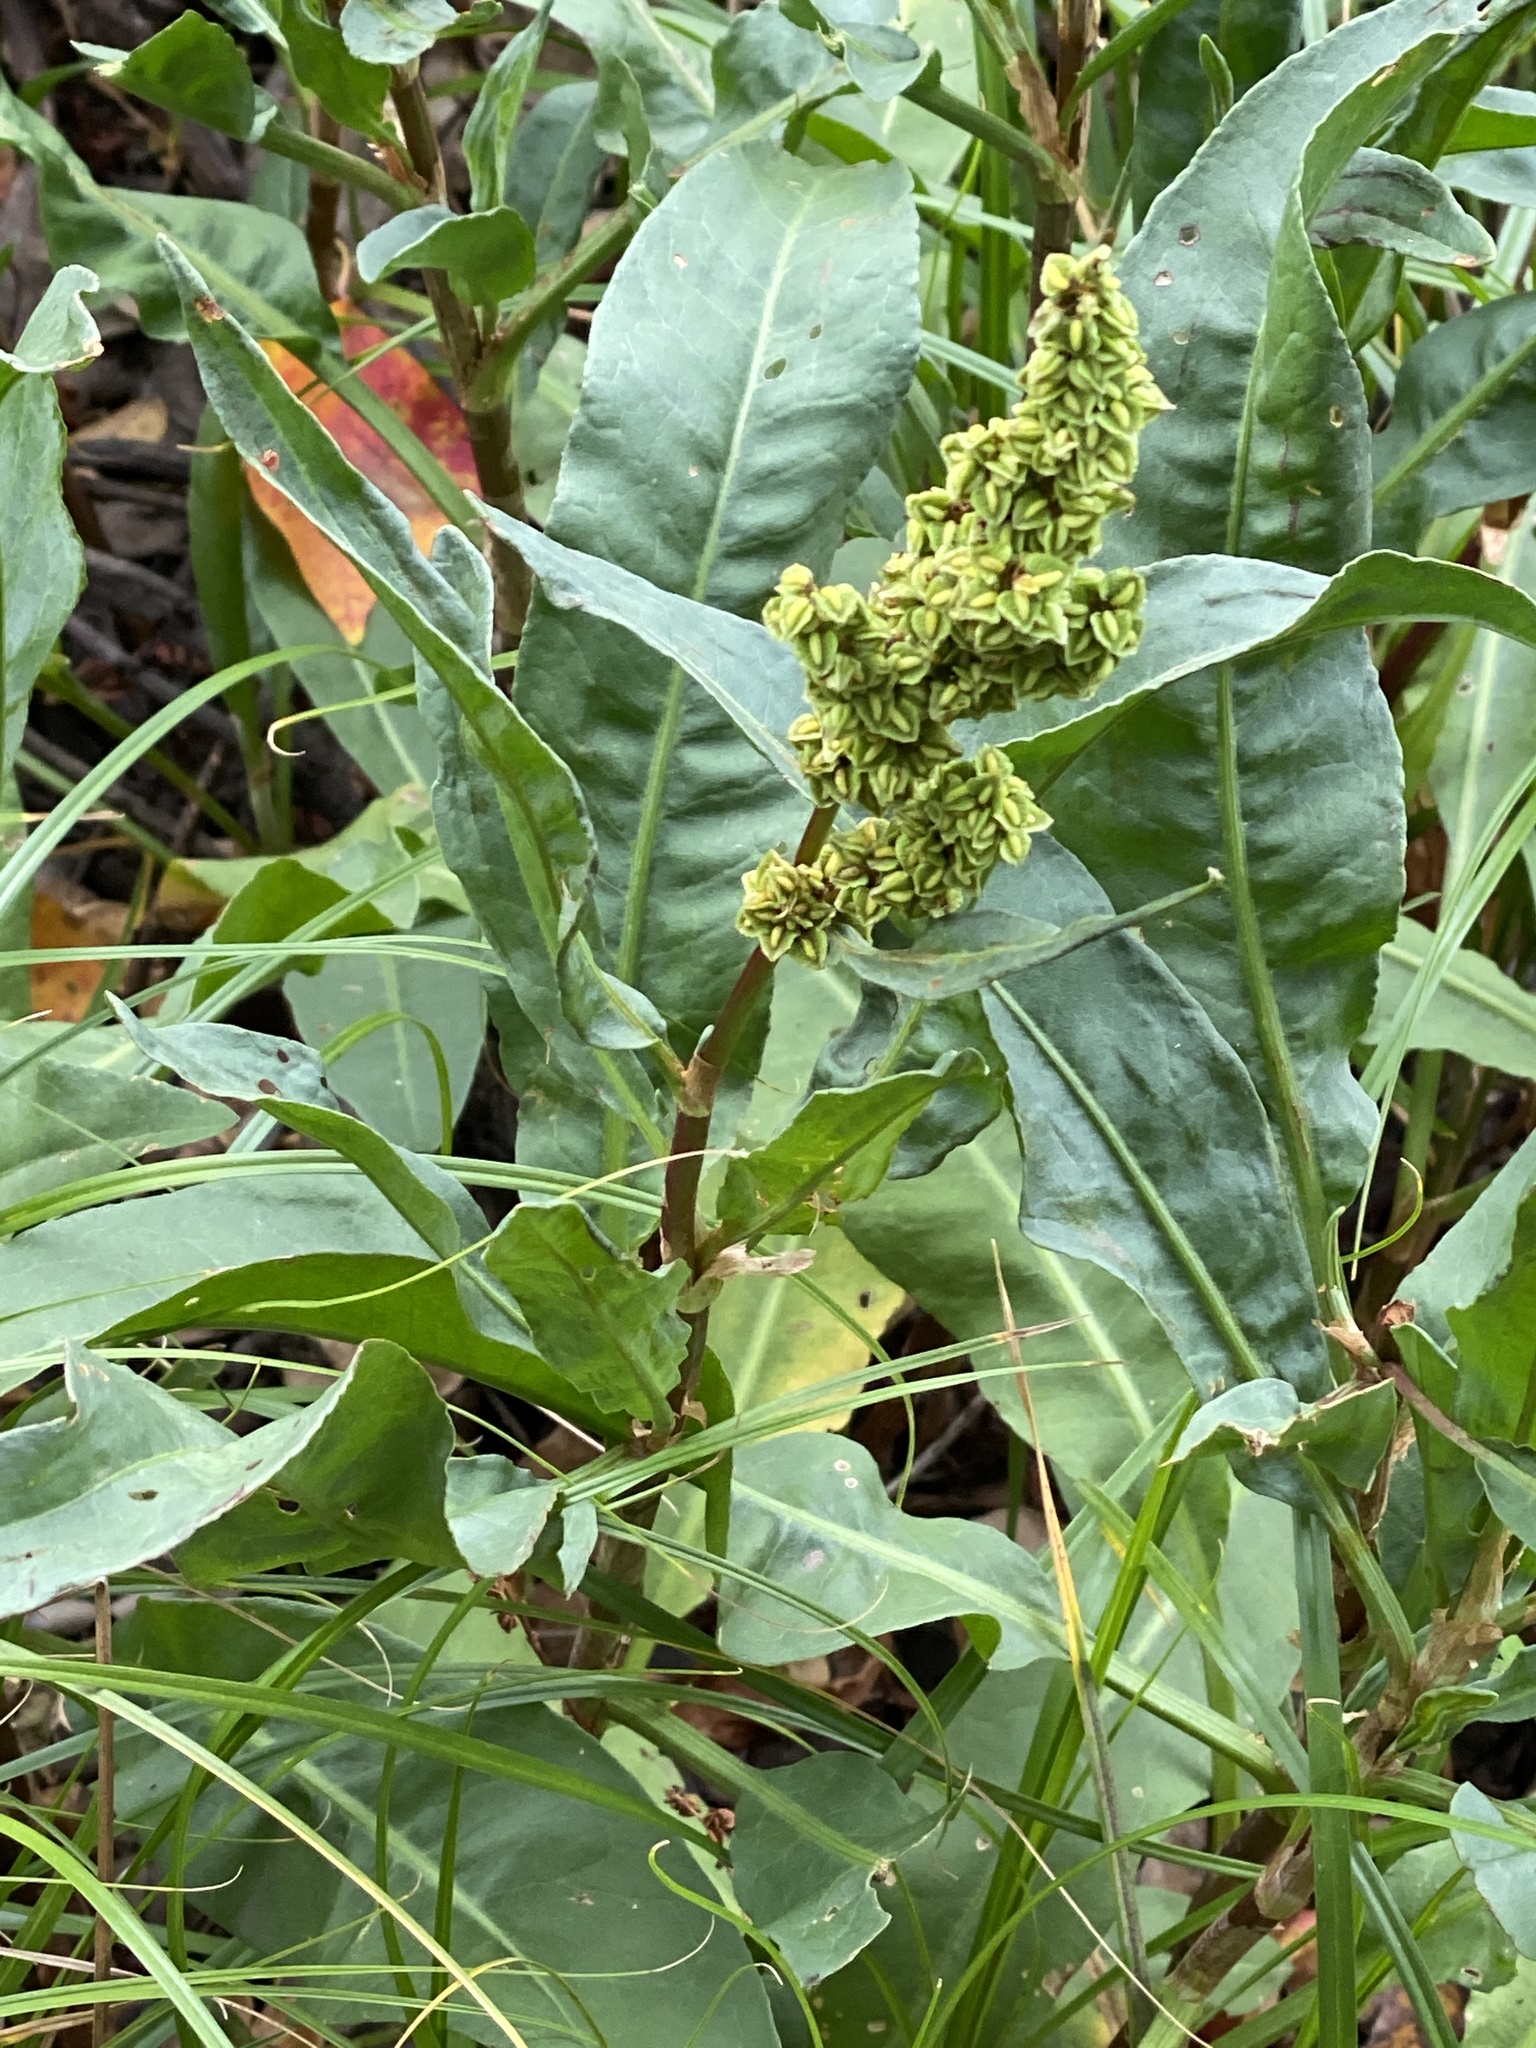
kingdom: Plantae
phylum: Tracheophyta
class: Magnoliopsida
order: Caryophyllales
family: Polygonaceae
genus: Rumex
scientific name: Rumex crispus
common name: Curled dock
